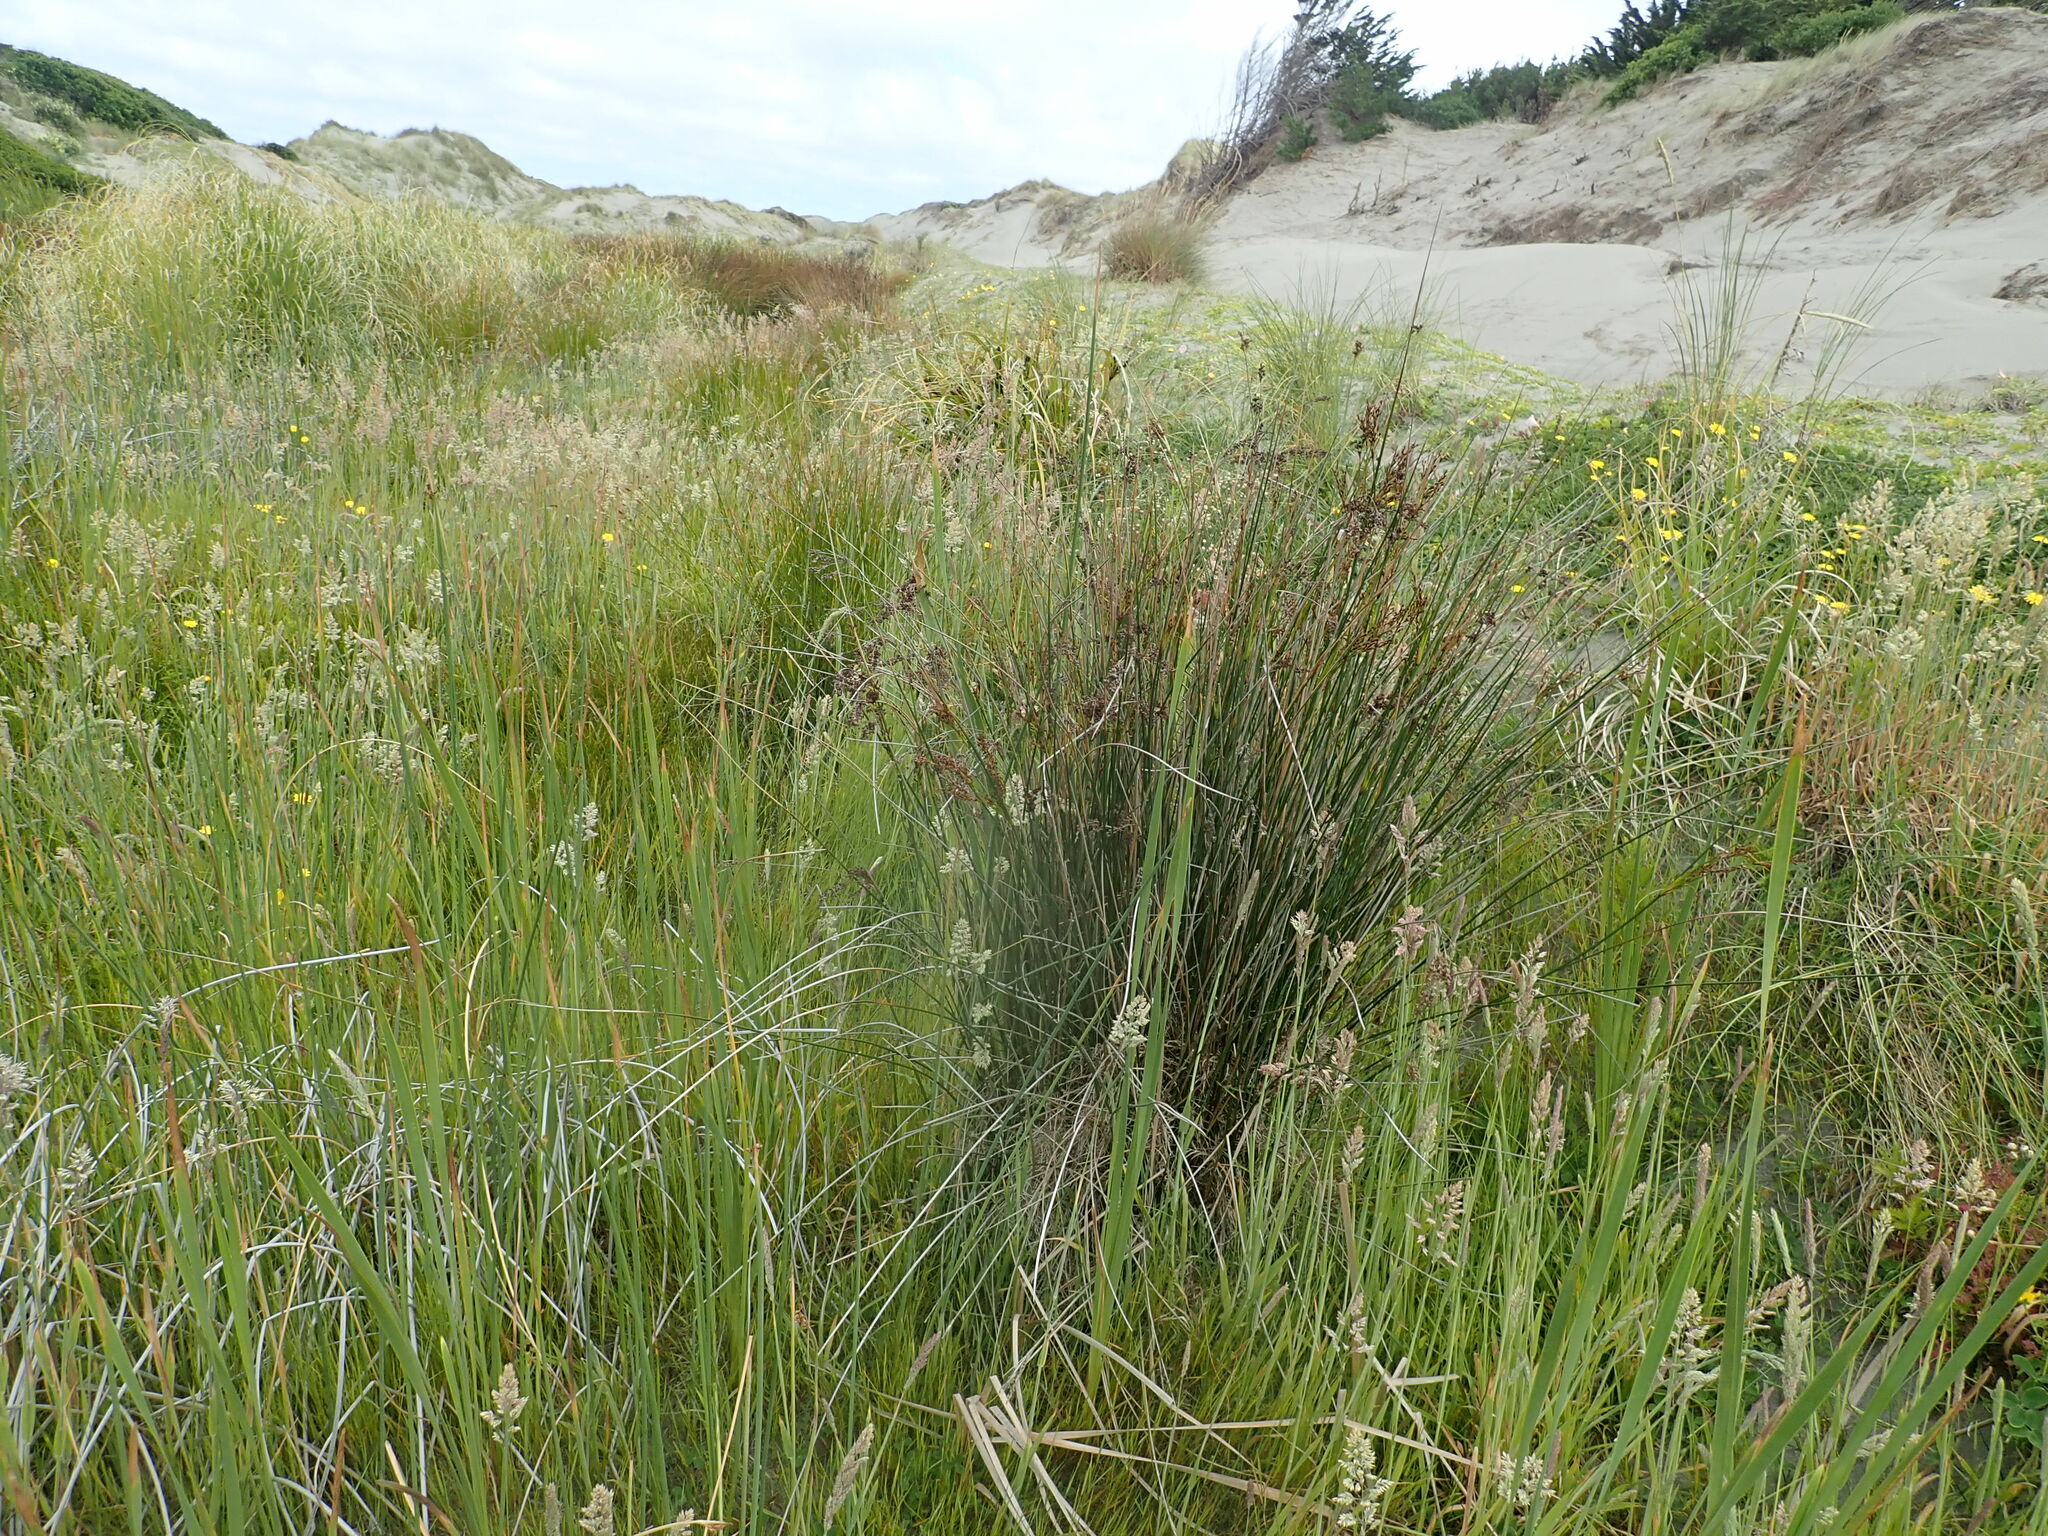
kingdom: Plantae
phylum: Tracheophyta
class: Liliopsida
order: Poales
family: Juncaceae
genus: Juncus
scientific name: Juncus kraussii
